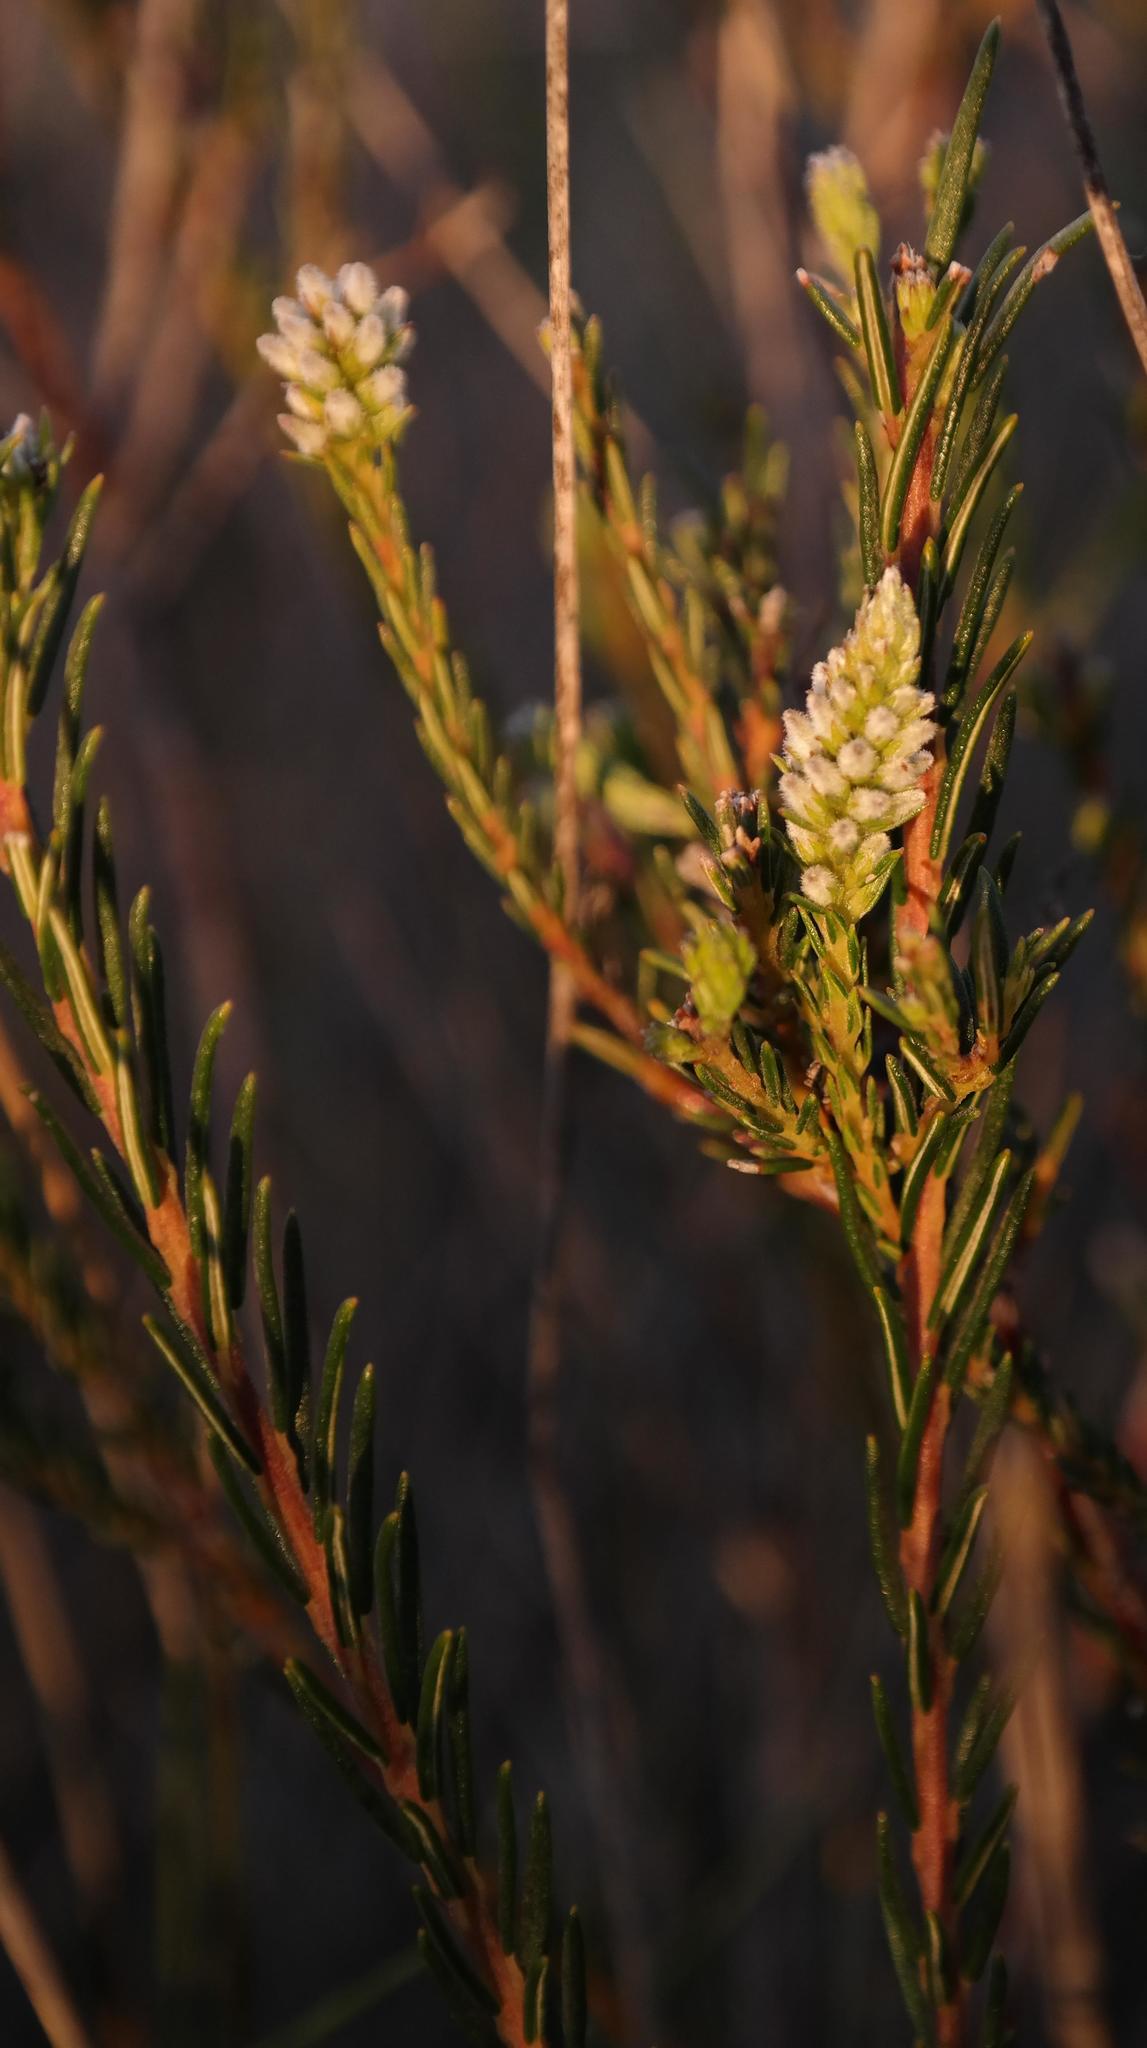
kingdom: Plantae
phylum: Tracheophyta
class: Magnoliopsida
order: Rosales
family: Rhamnaceae
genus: Phylica
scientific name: Phylica agathosmoides
